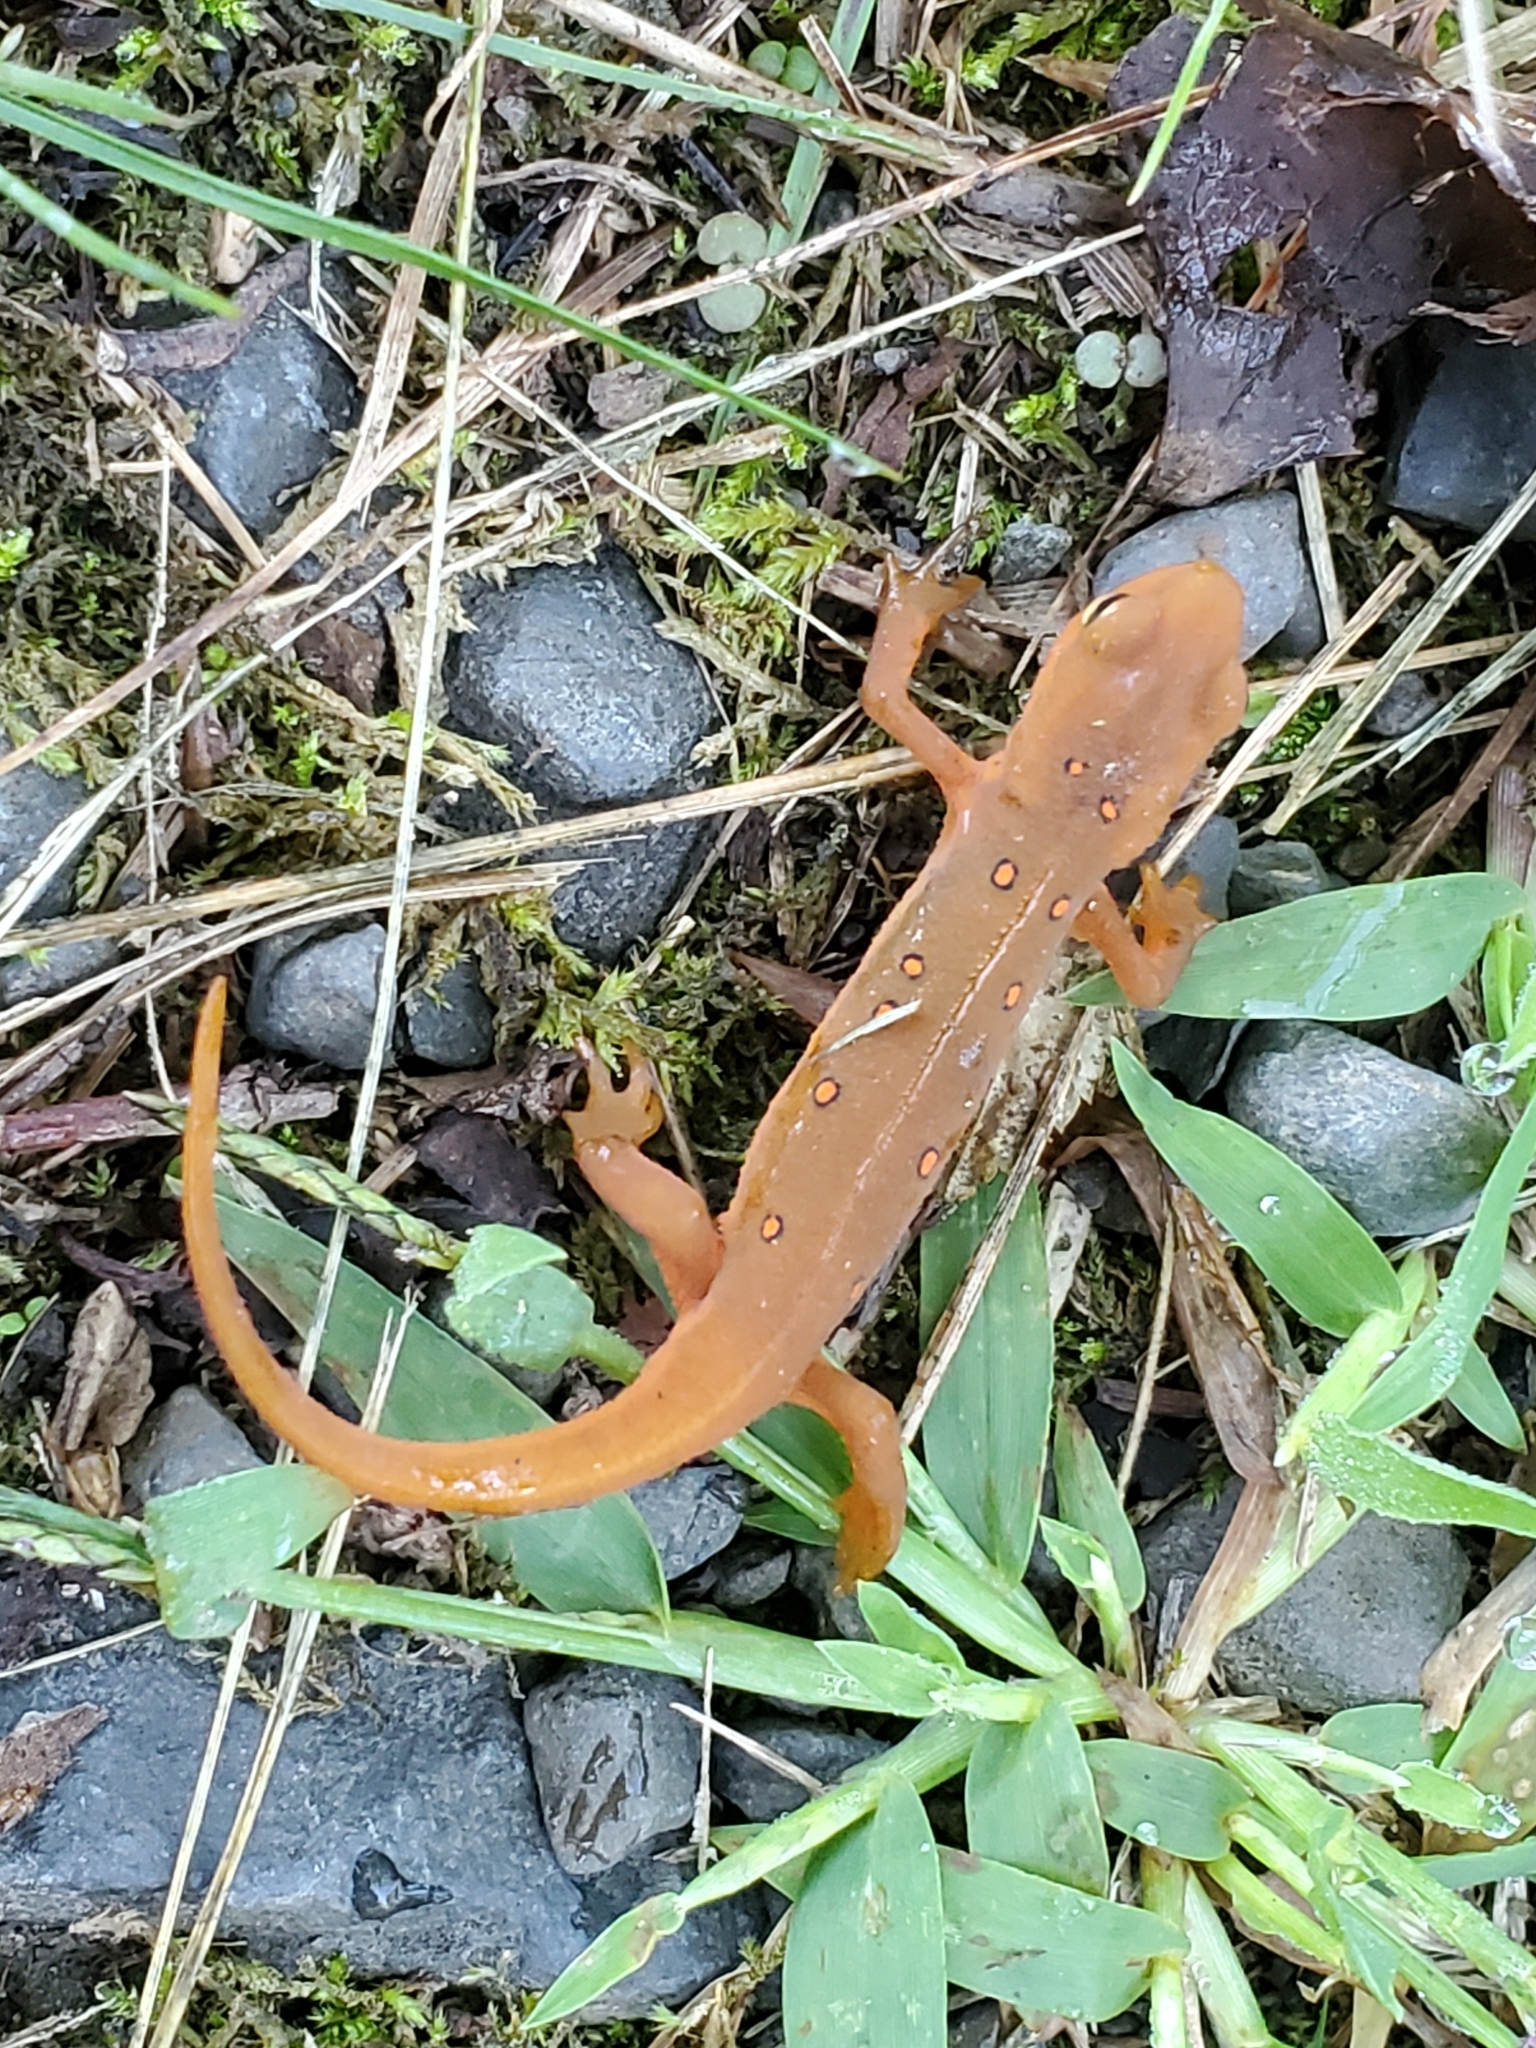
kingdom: Animalia
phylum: Chordata
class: Amphibia
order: Caudata
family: Salamandridae
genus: Notophthalmus
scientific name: Notophthalmus viridescens
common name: Eastern newt
